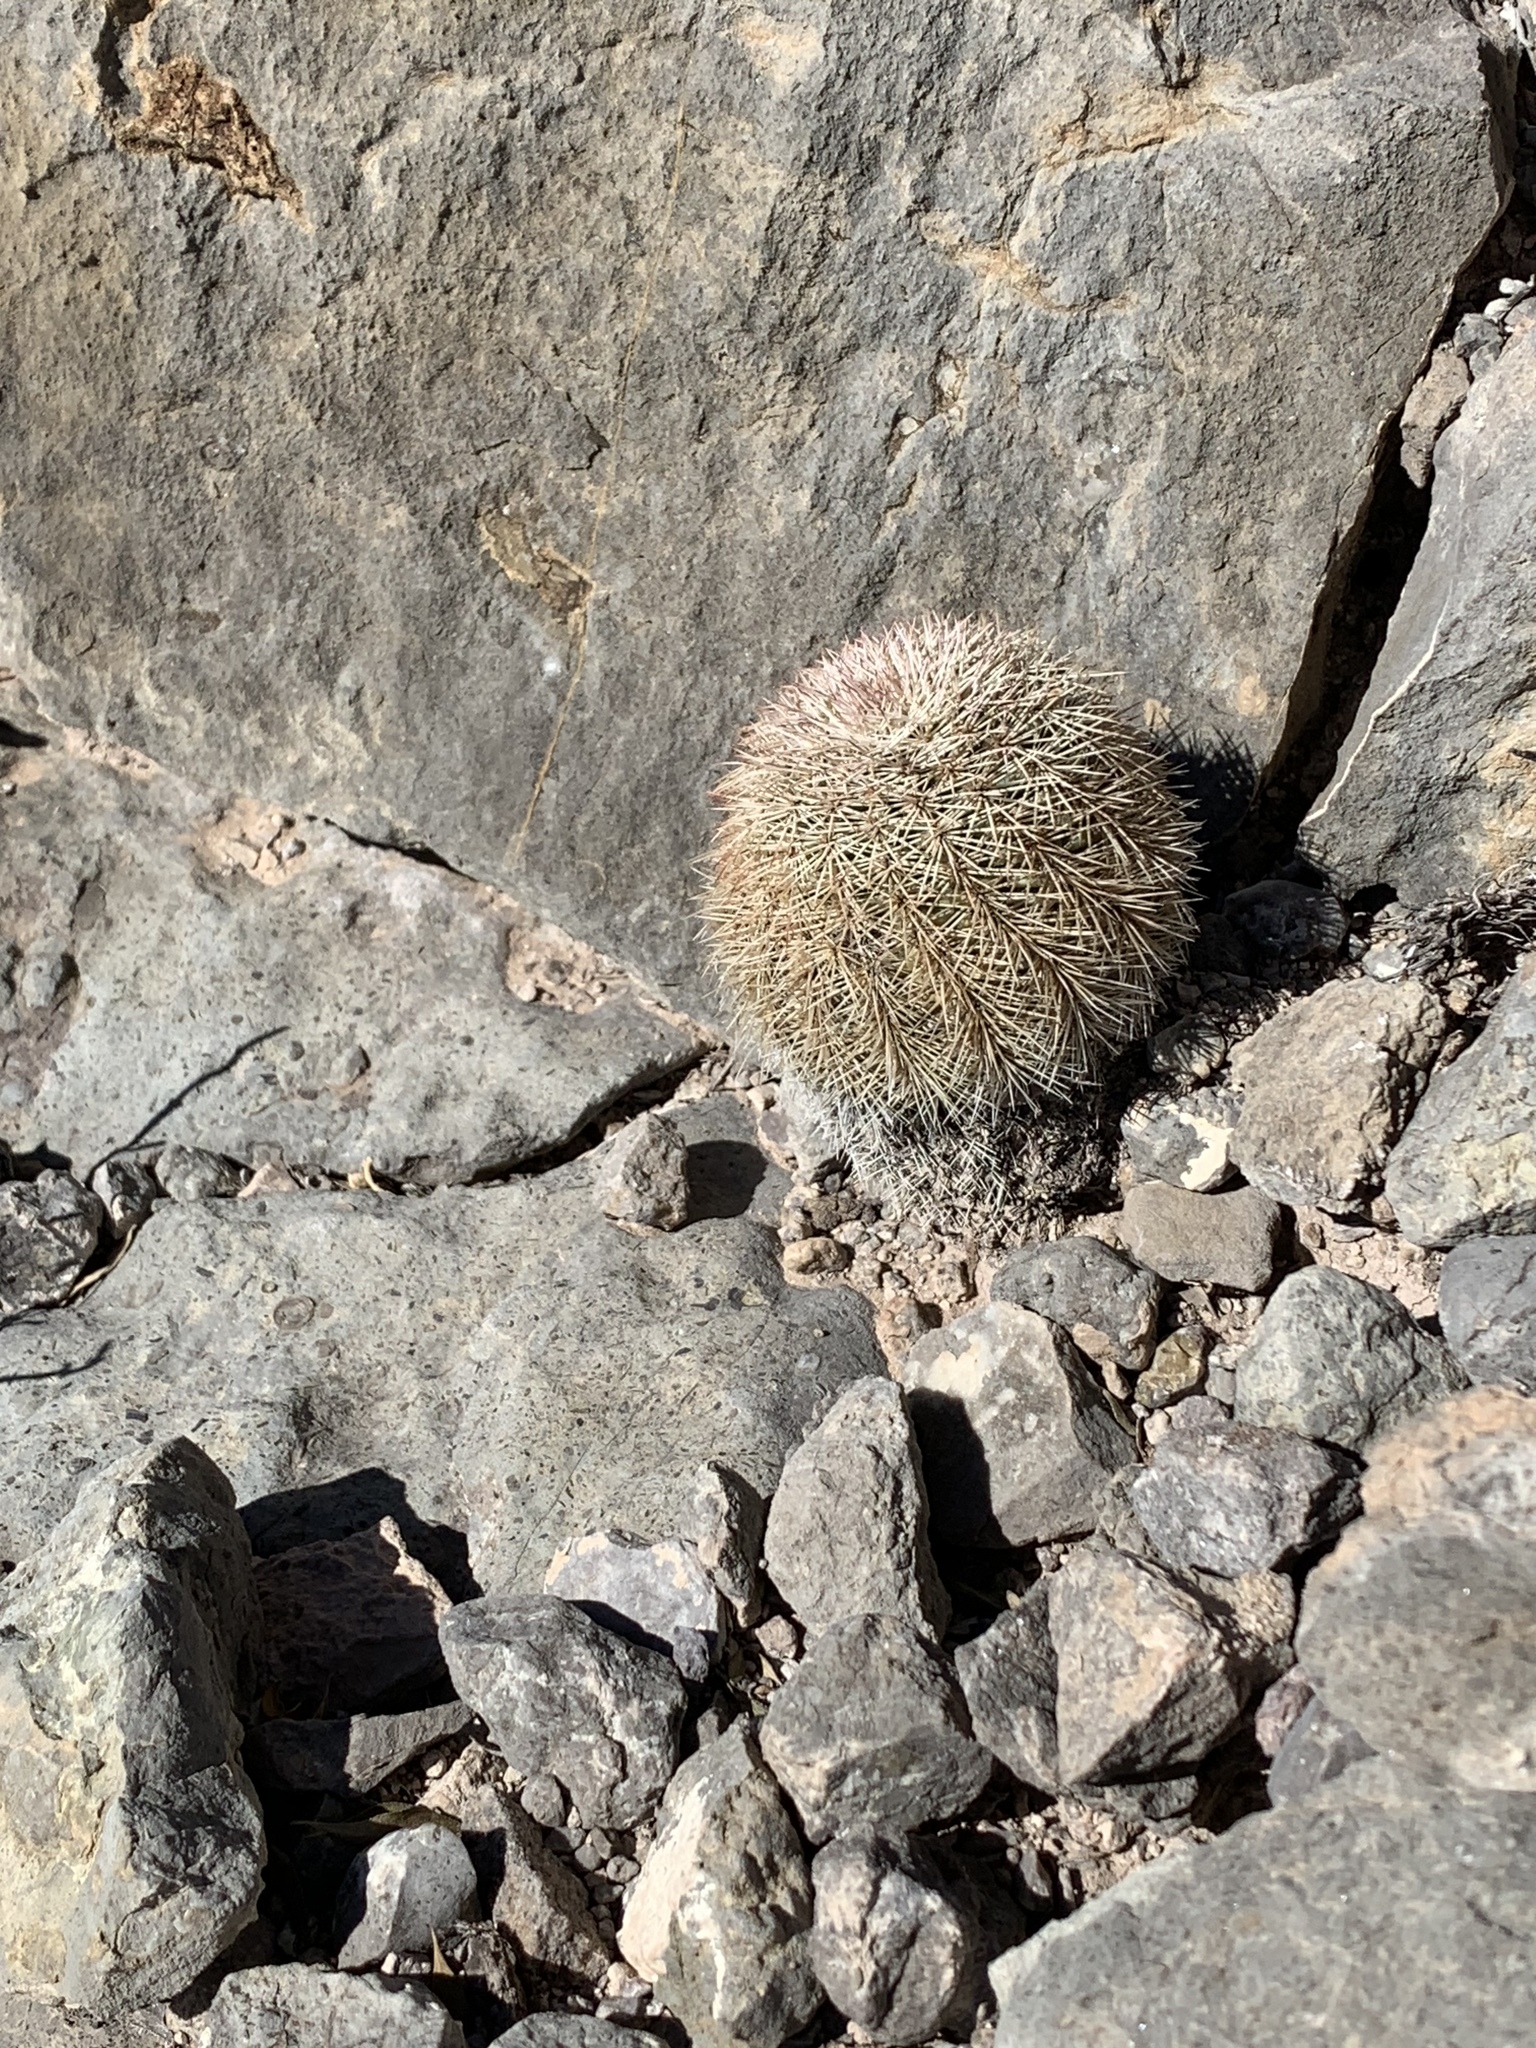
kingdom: Plantae
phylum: Tracheophyta
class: Magnoliopsida
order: Caryophyllales
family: Cactaceae
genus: Echinocereus
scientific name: Echinocereus dasyacanthus
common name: Spiny hedgehog cactus
